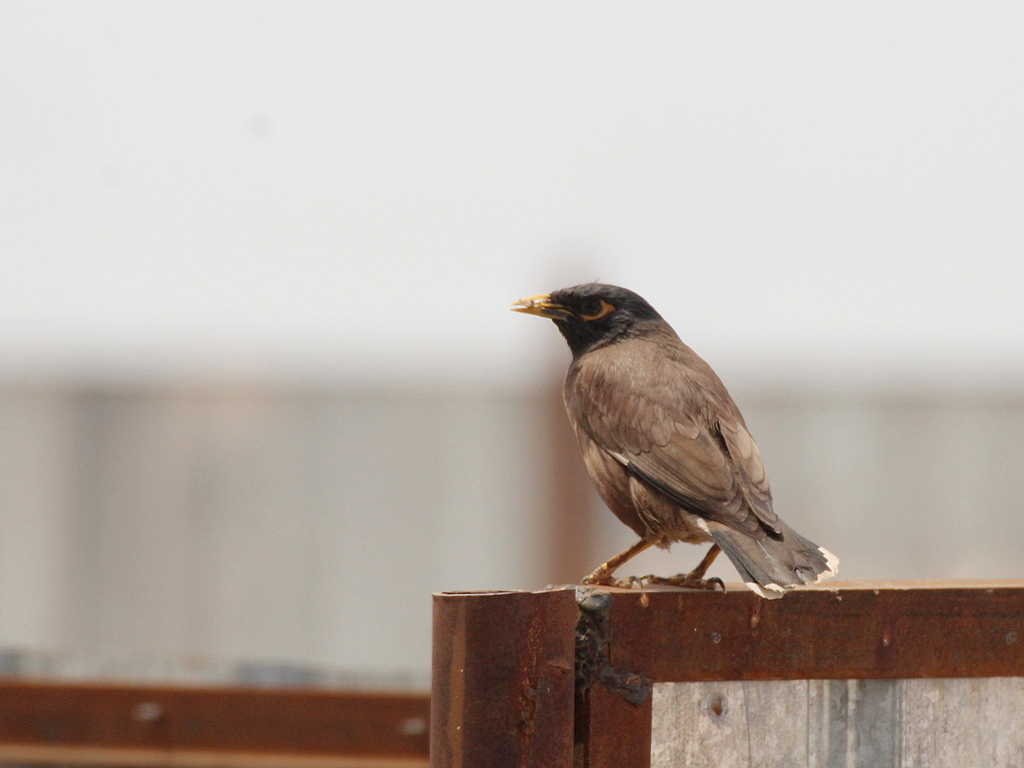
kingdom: Animalia
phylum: Chordata
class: Aves
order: Passeriformes
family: Sturnidae
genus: Acridotheres
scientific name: Acridotheres tristis
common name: Common myna
